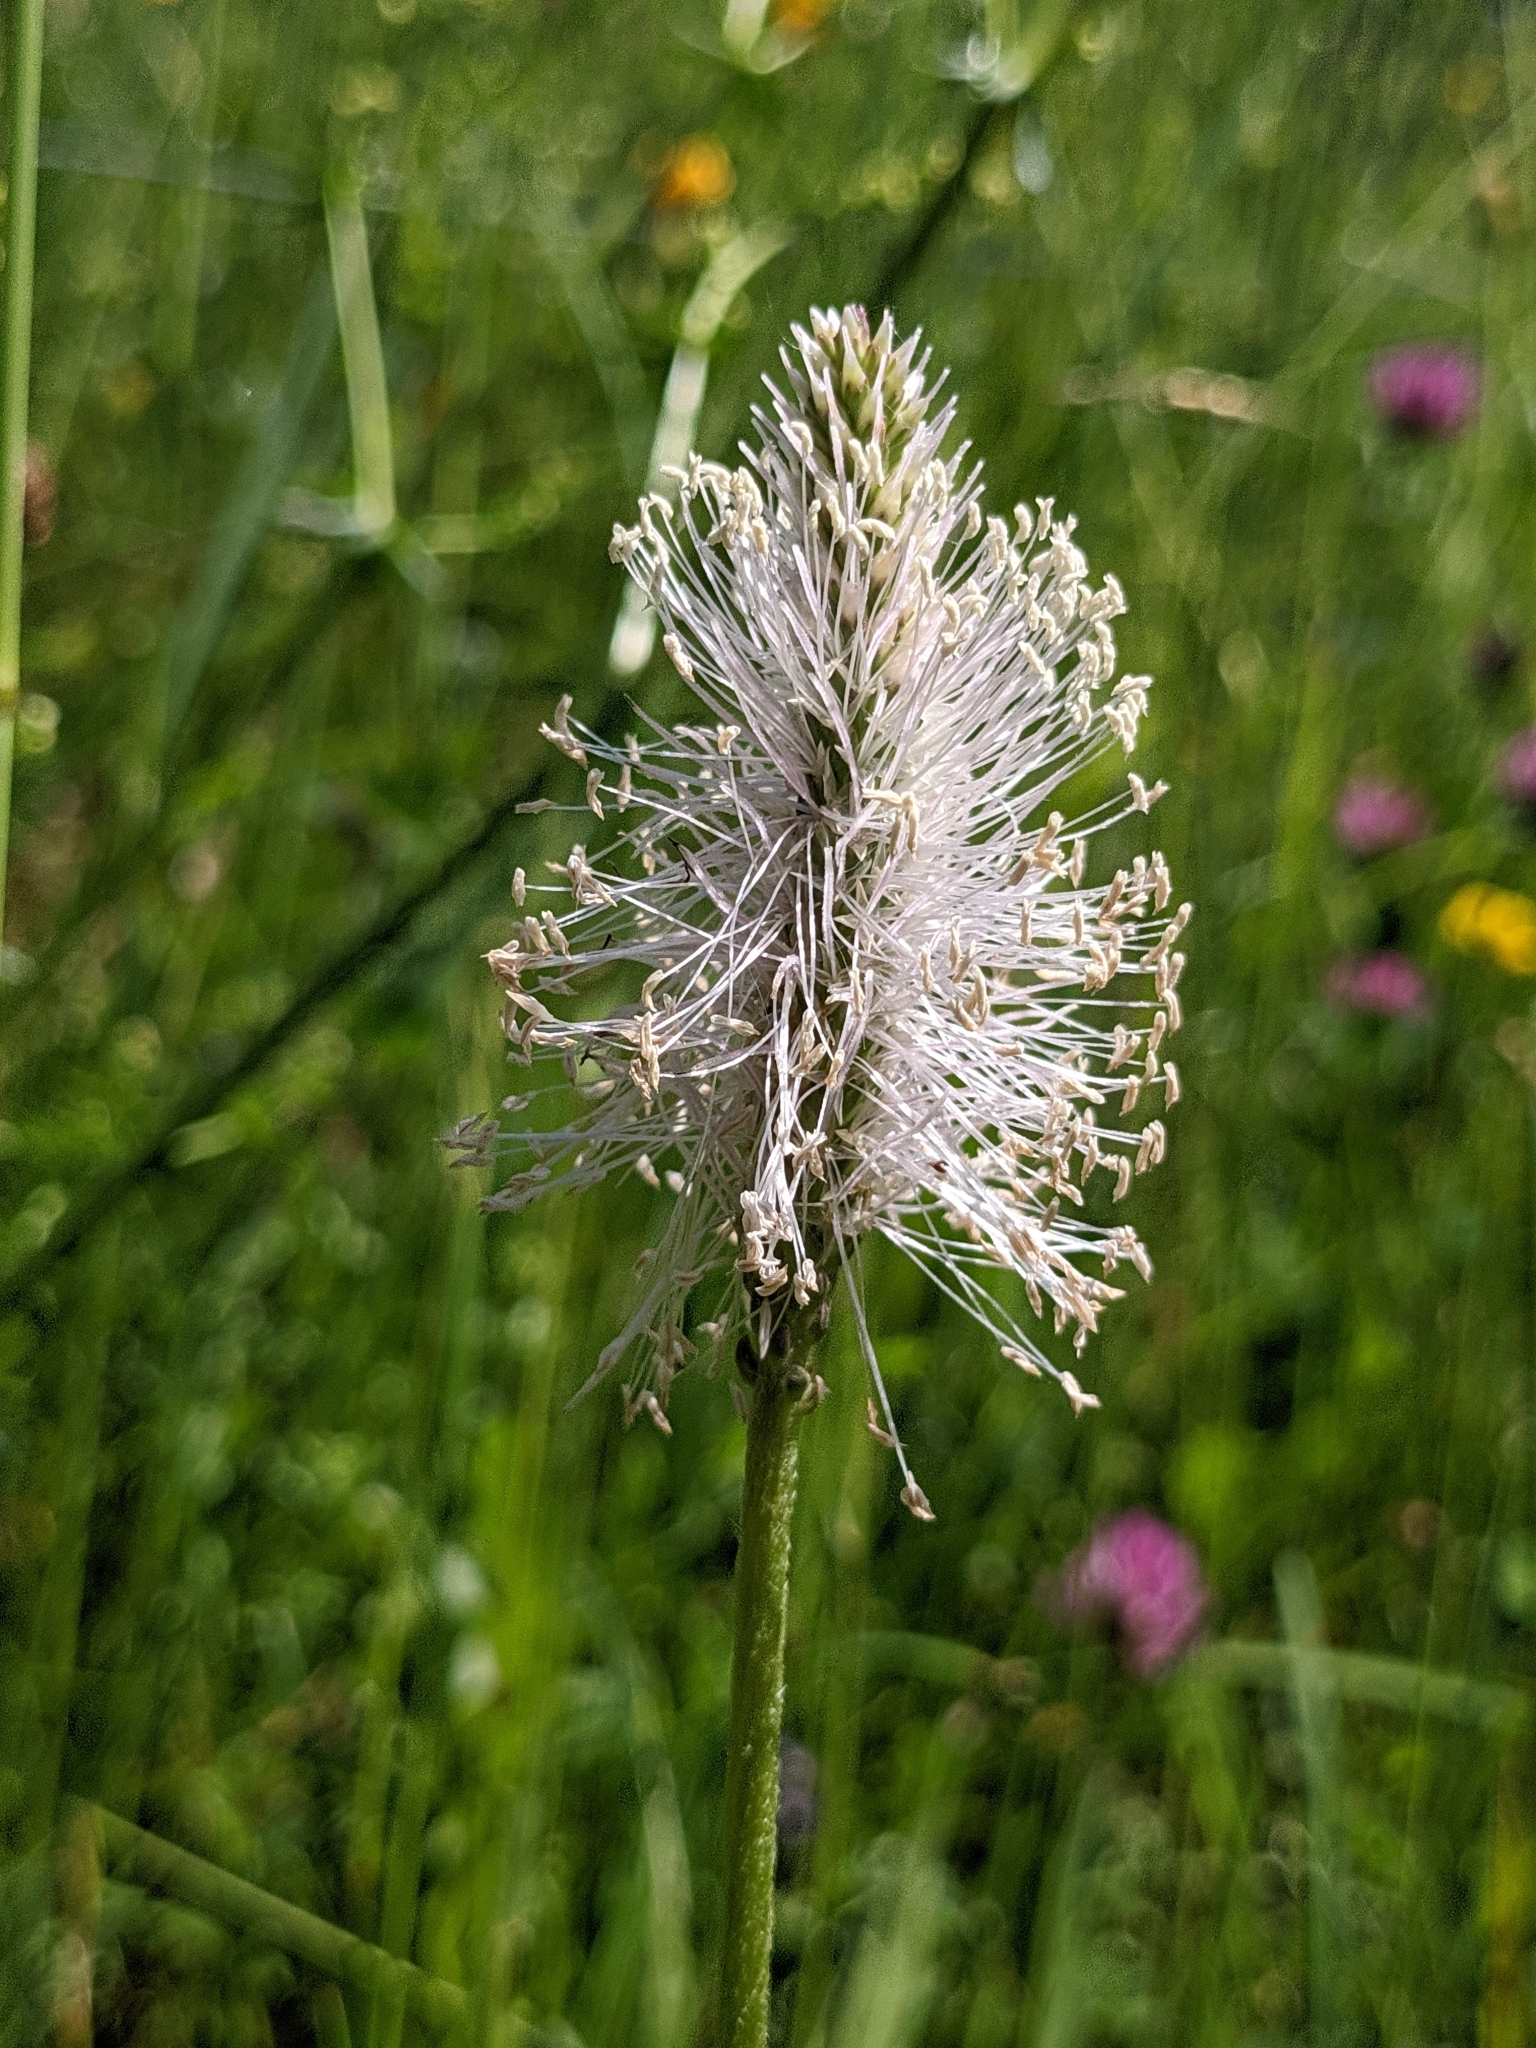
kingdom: Plantae
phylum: Tracheophyta
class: Magnoliopsida
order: Lamiales
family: Plantaginaceae
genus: Plantago
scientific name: Plantago media
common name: Hoary plantain
